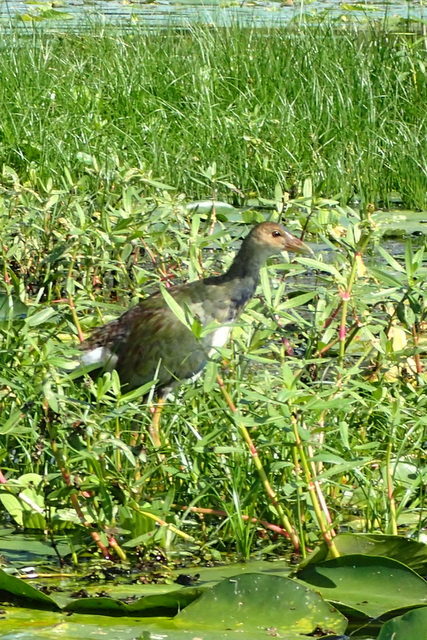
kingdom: Animalia
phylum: Chordata
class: Aves
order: Gruiformes
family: Rallidae
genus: Porphyrio
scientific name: Porphyrio martinica
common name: Purple gallinule
